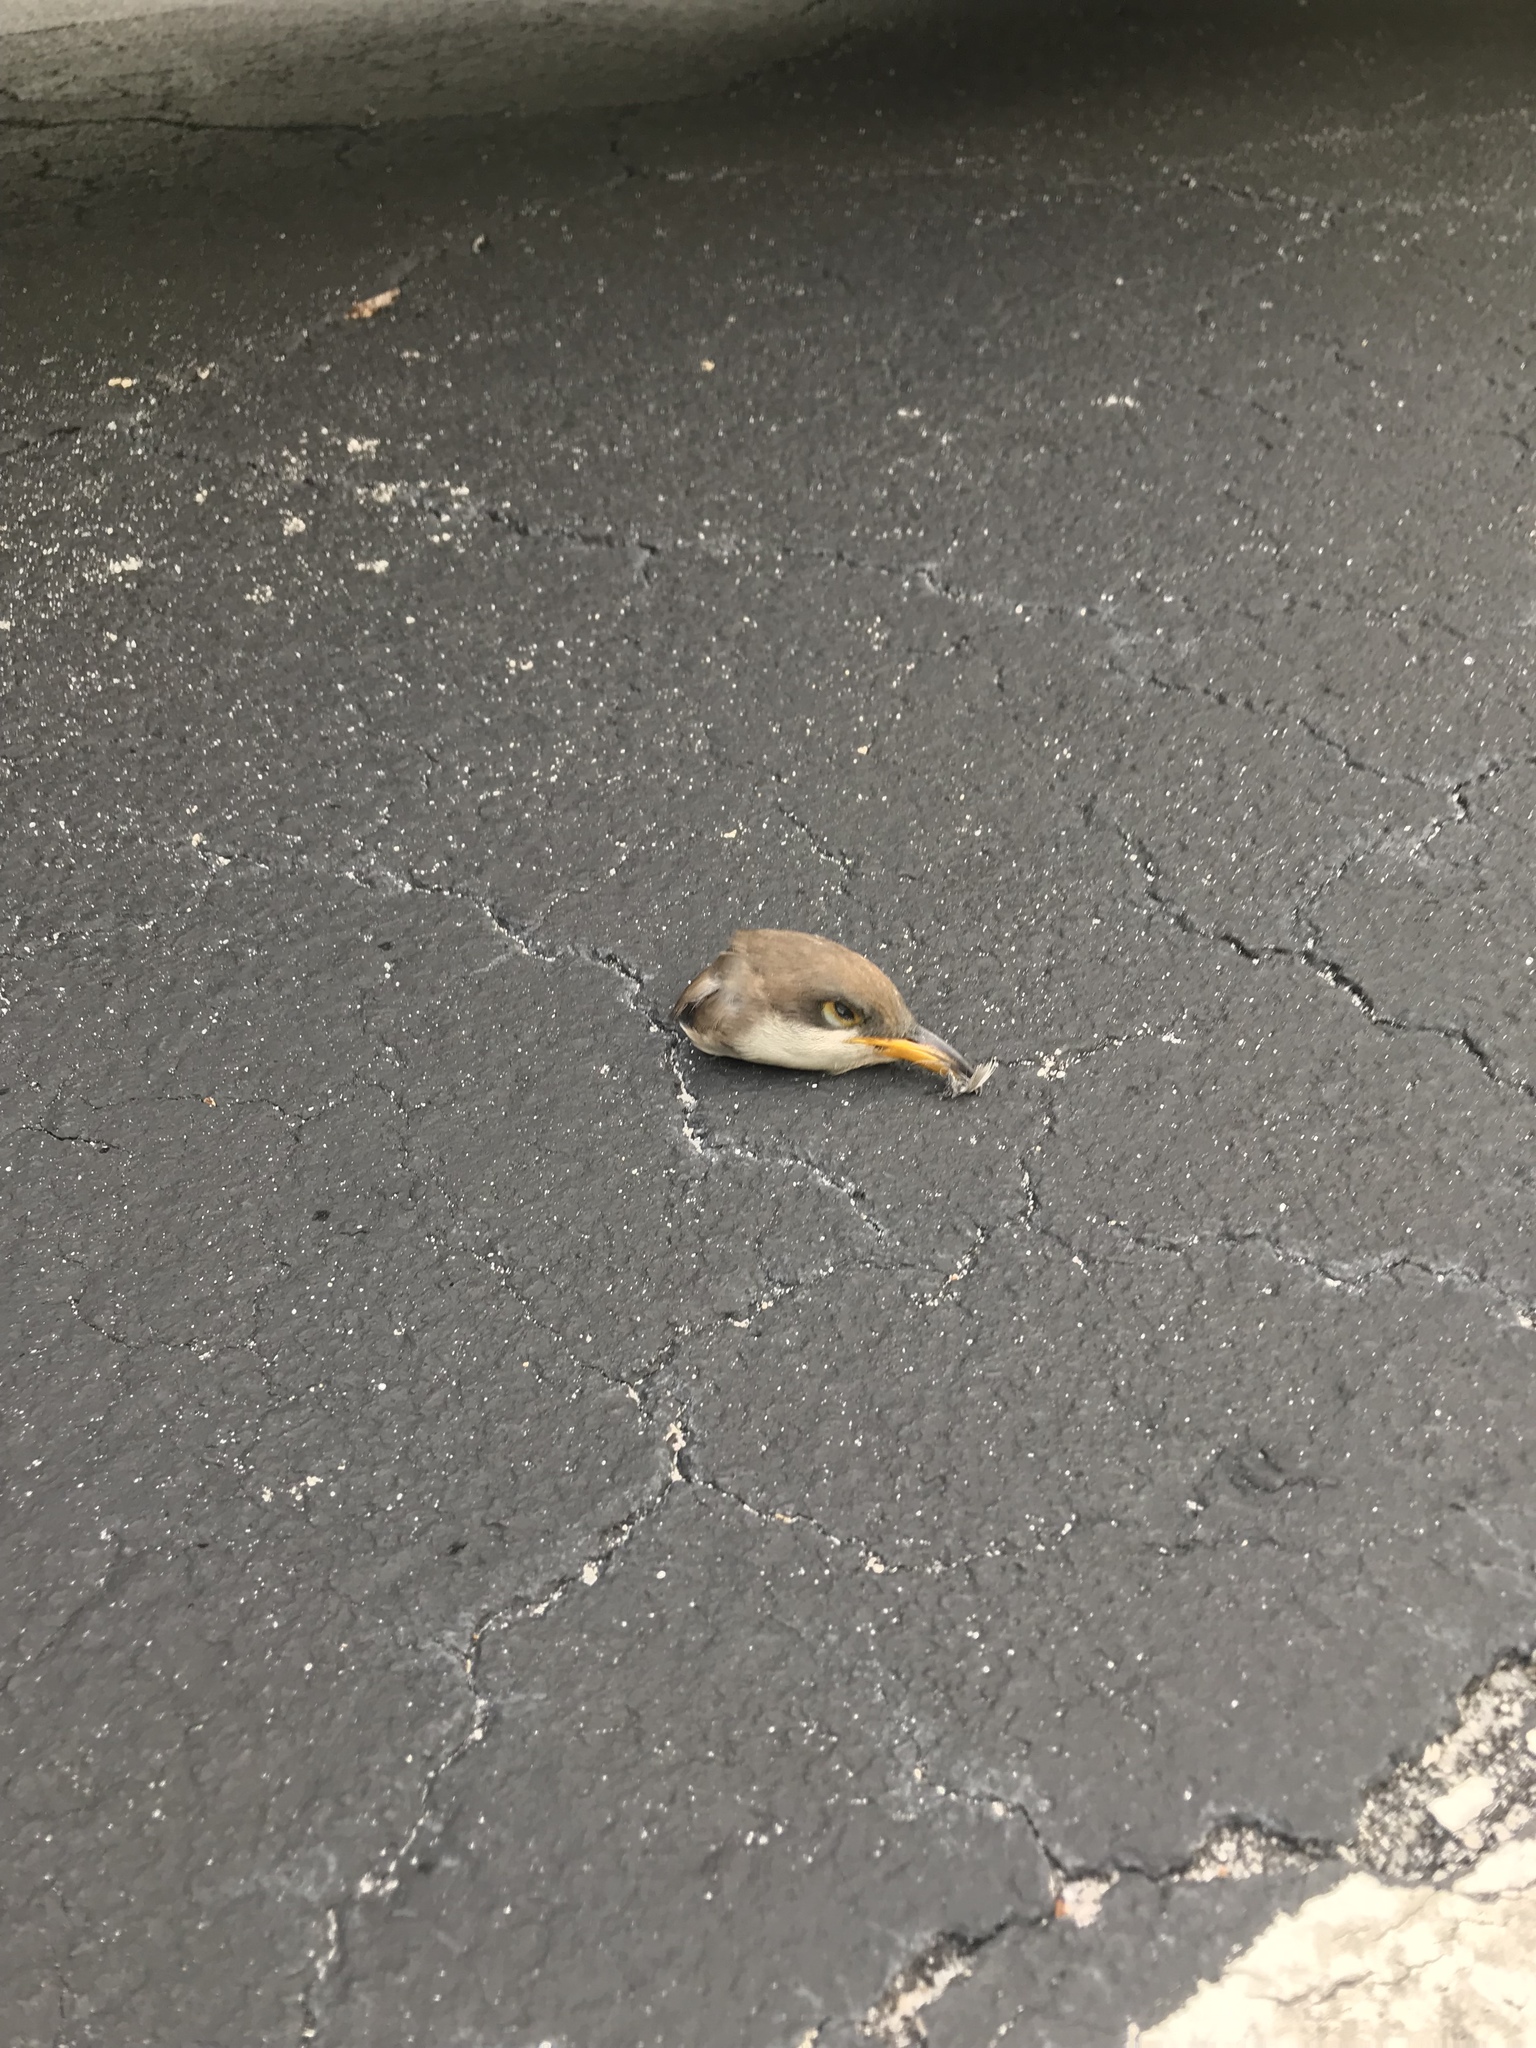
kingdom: Animalia
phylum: Chordata
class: Aves
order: Cuculiformes
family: Cuculidae
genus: Coccyzus
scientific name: Coccyzus americanus
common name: Yellow-billed cuckoo
